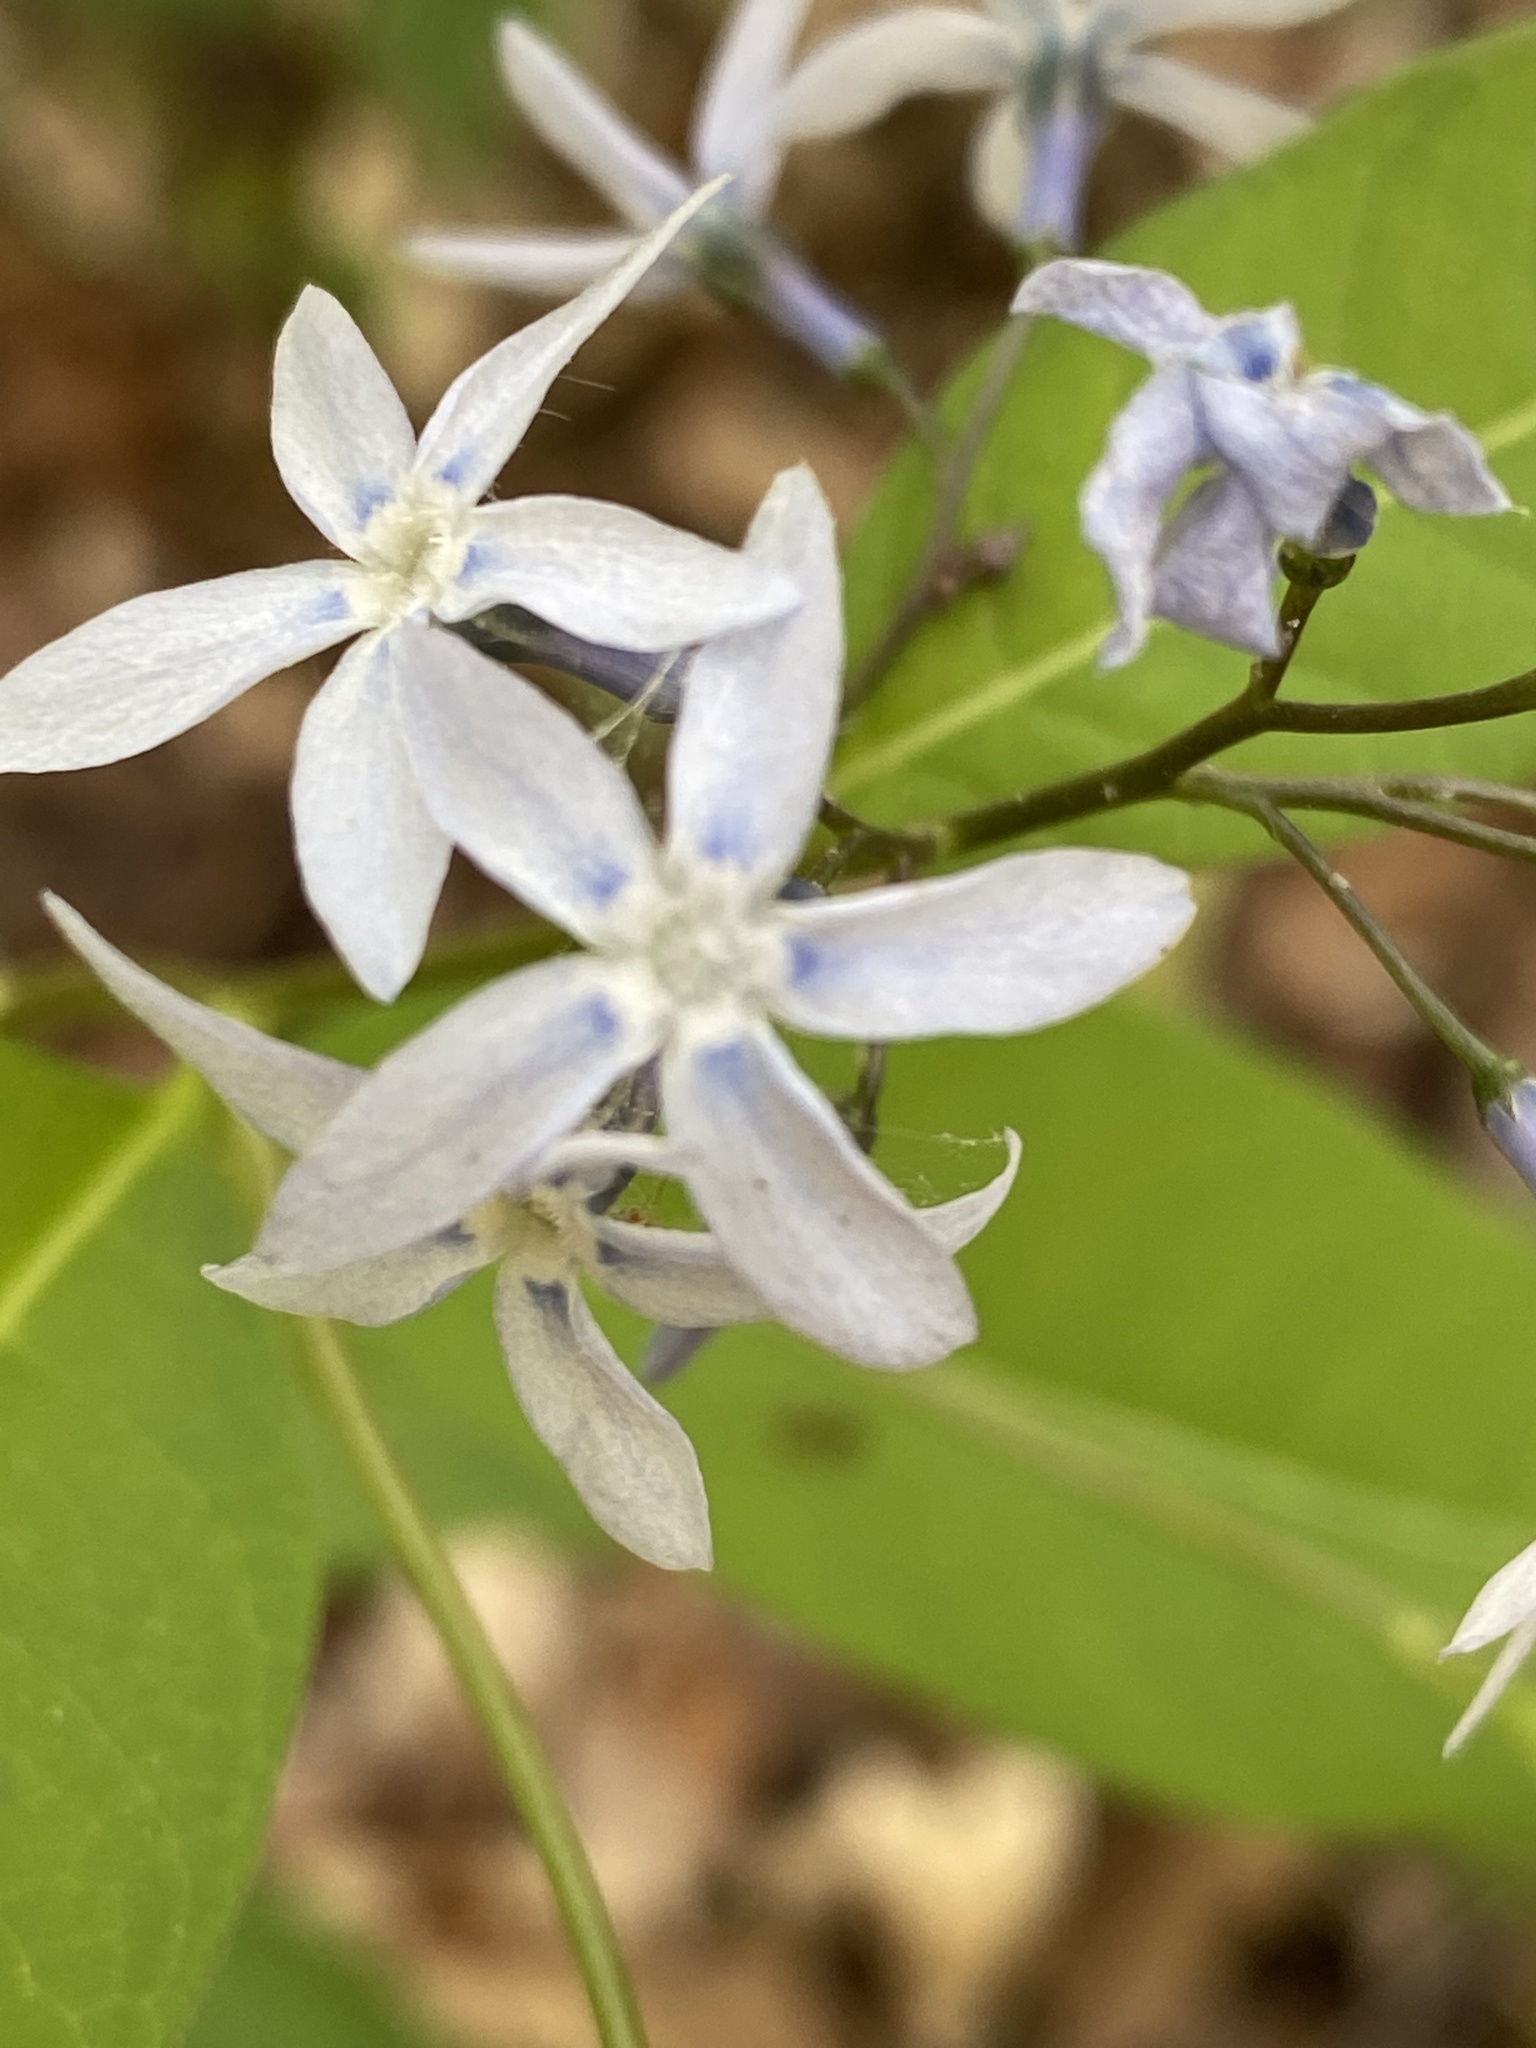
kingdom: Plantae
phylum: Tracheophyta
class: Magnoliopsida
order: Gentianales
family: Apocynaceae
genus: Amsonia
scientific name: Amsonia tabernaemontana
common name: Texas-star
